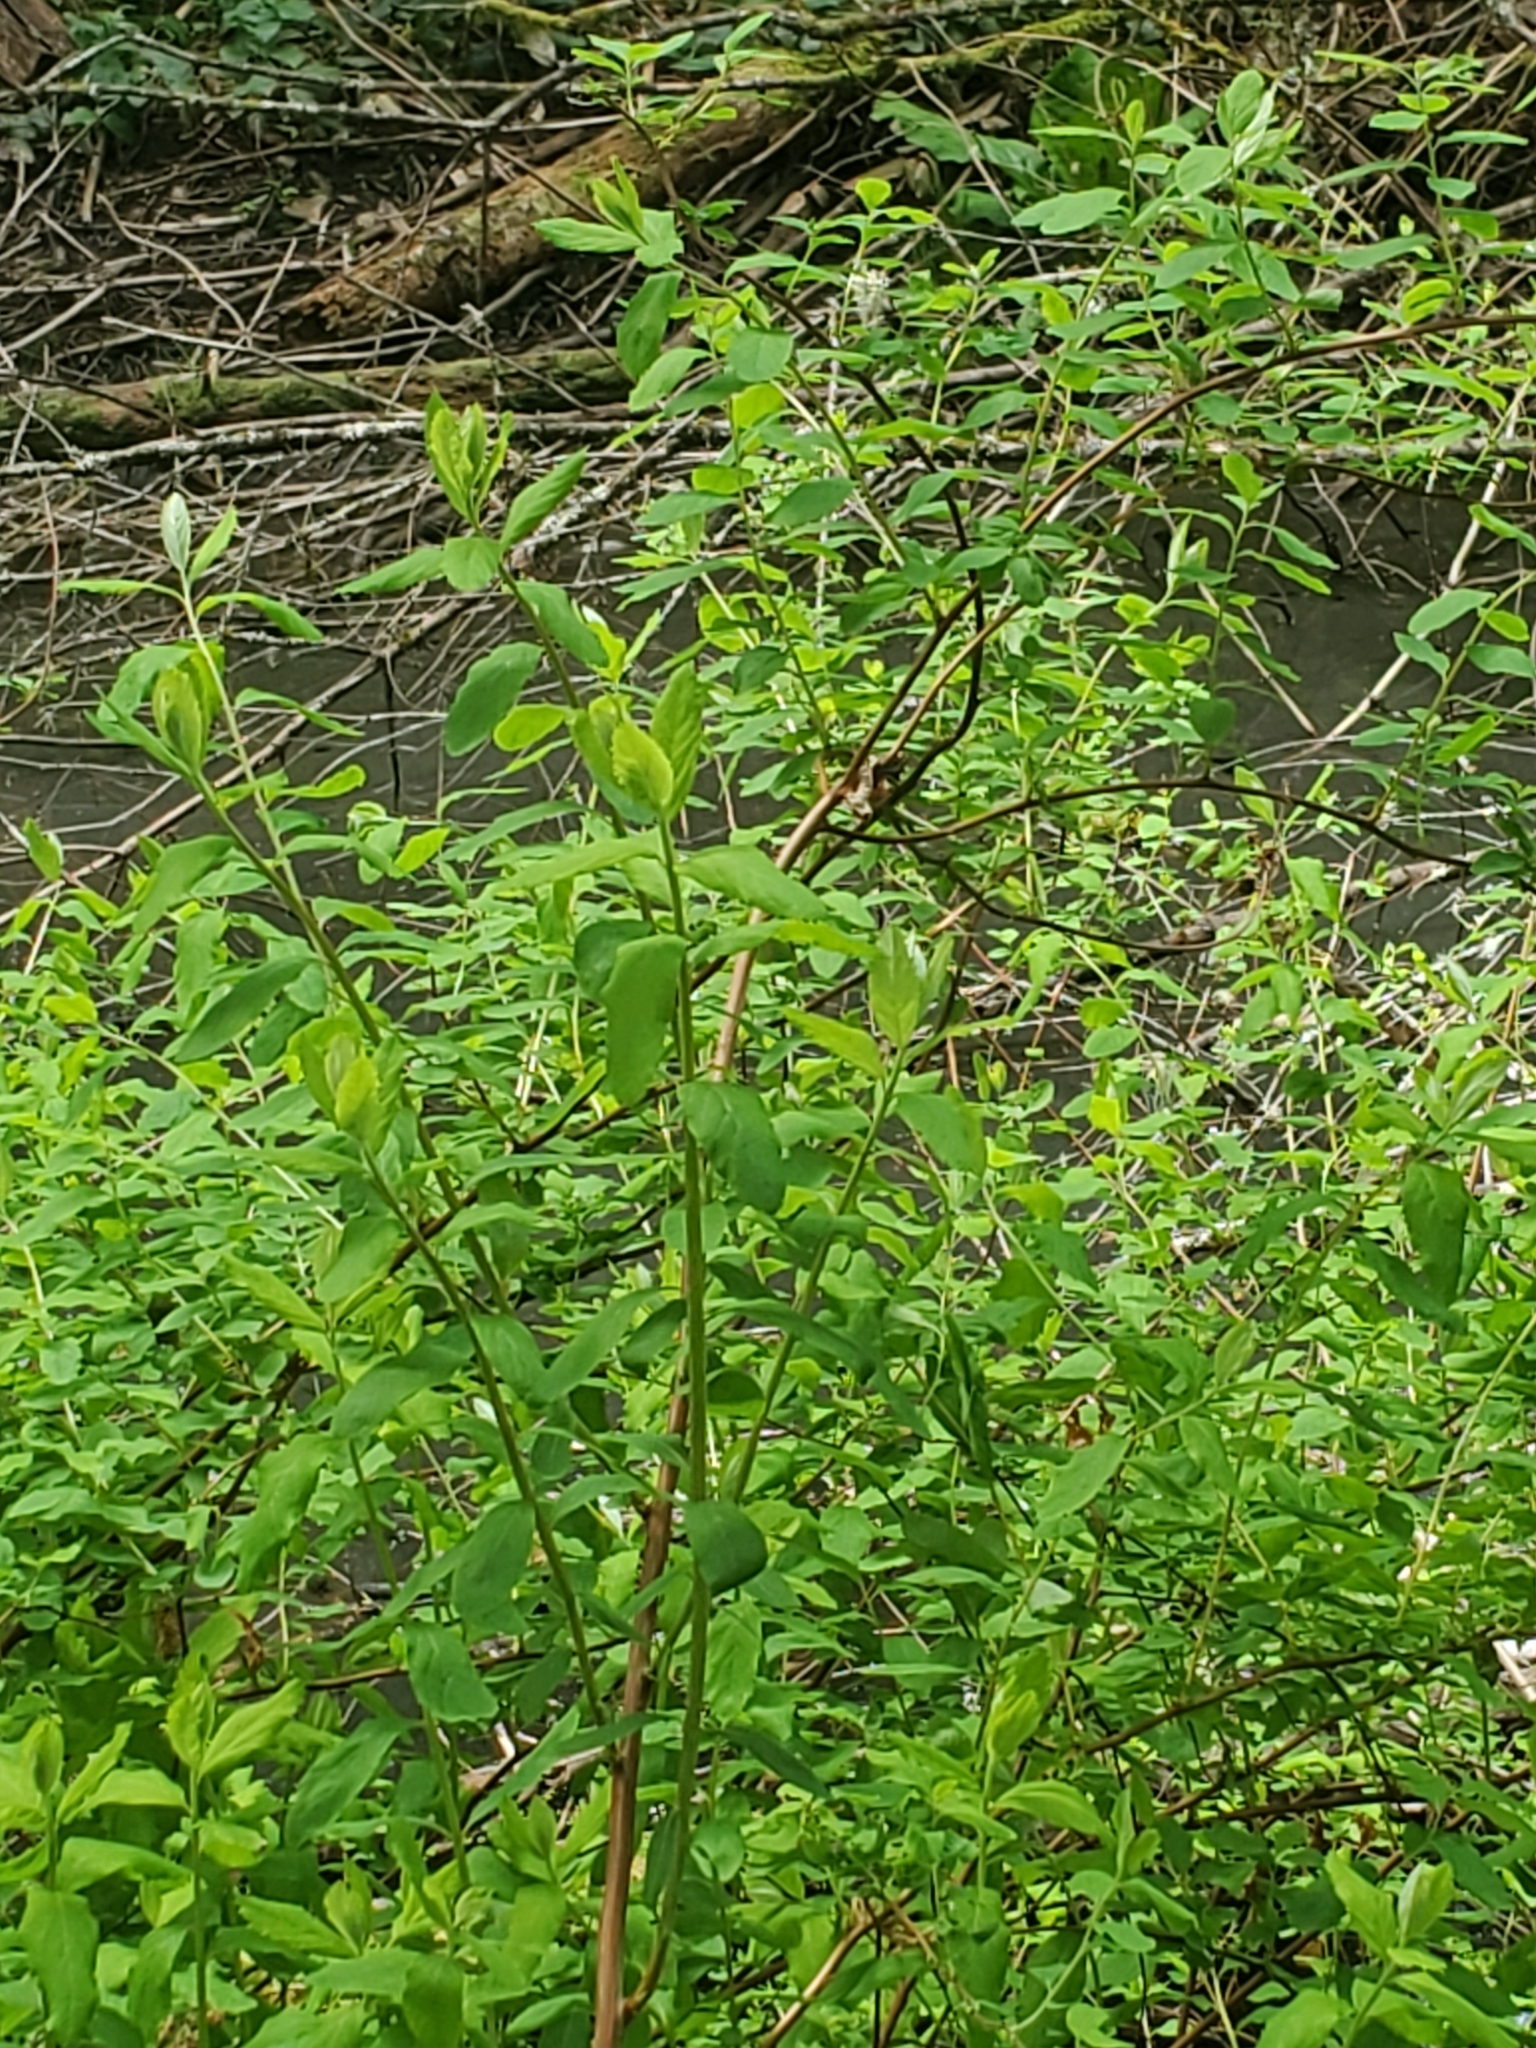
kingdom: Plantae
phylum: Tracheophyta
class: Magnoliopsida
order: Rosales
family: Rosaceae
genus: Spiraea
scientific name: Spiraea douglasii
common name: Steeplebush
